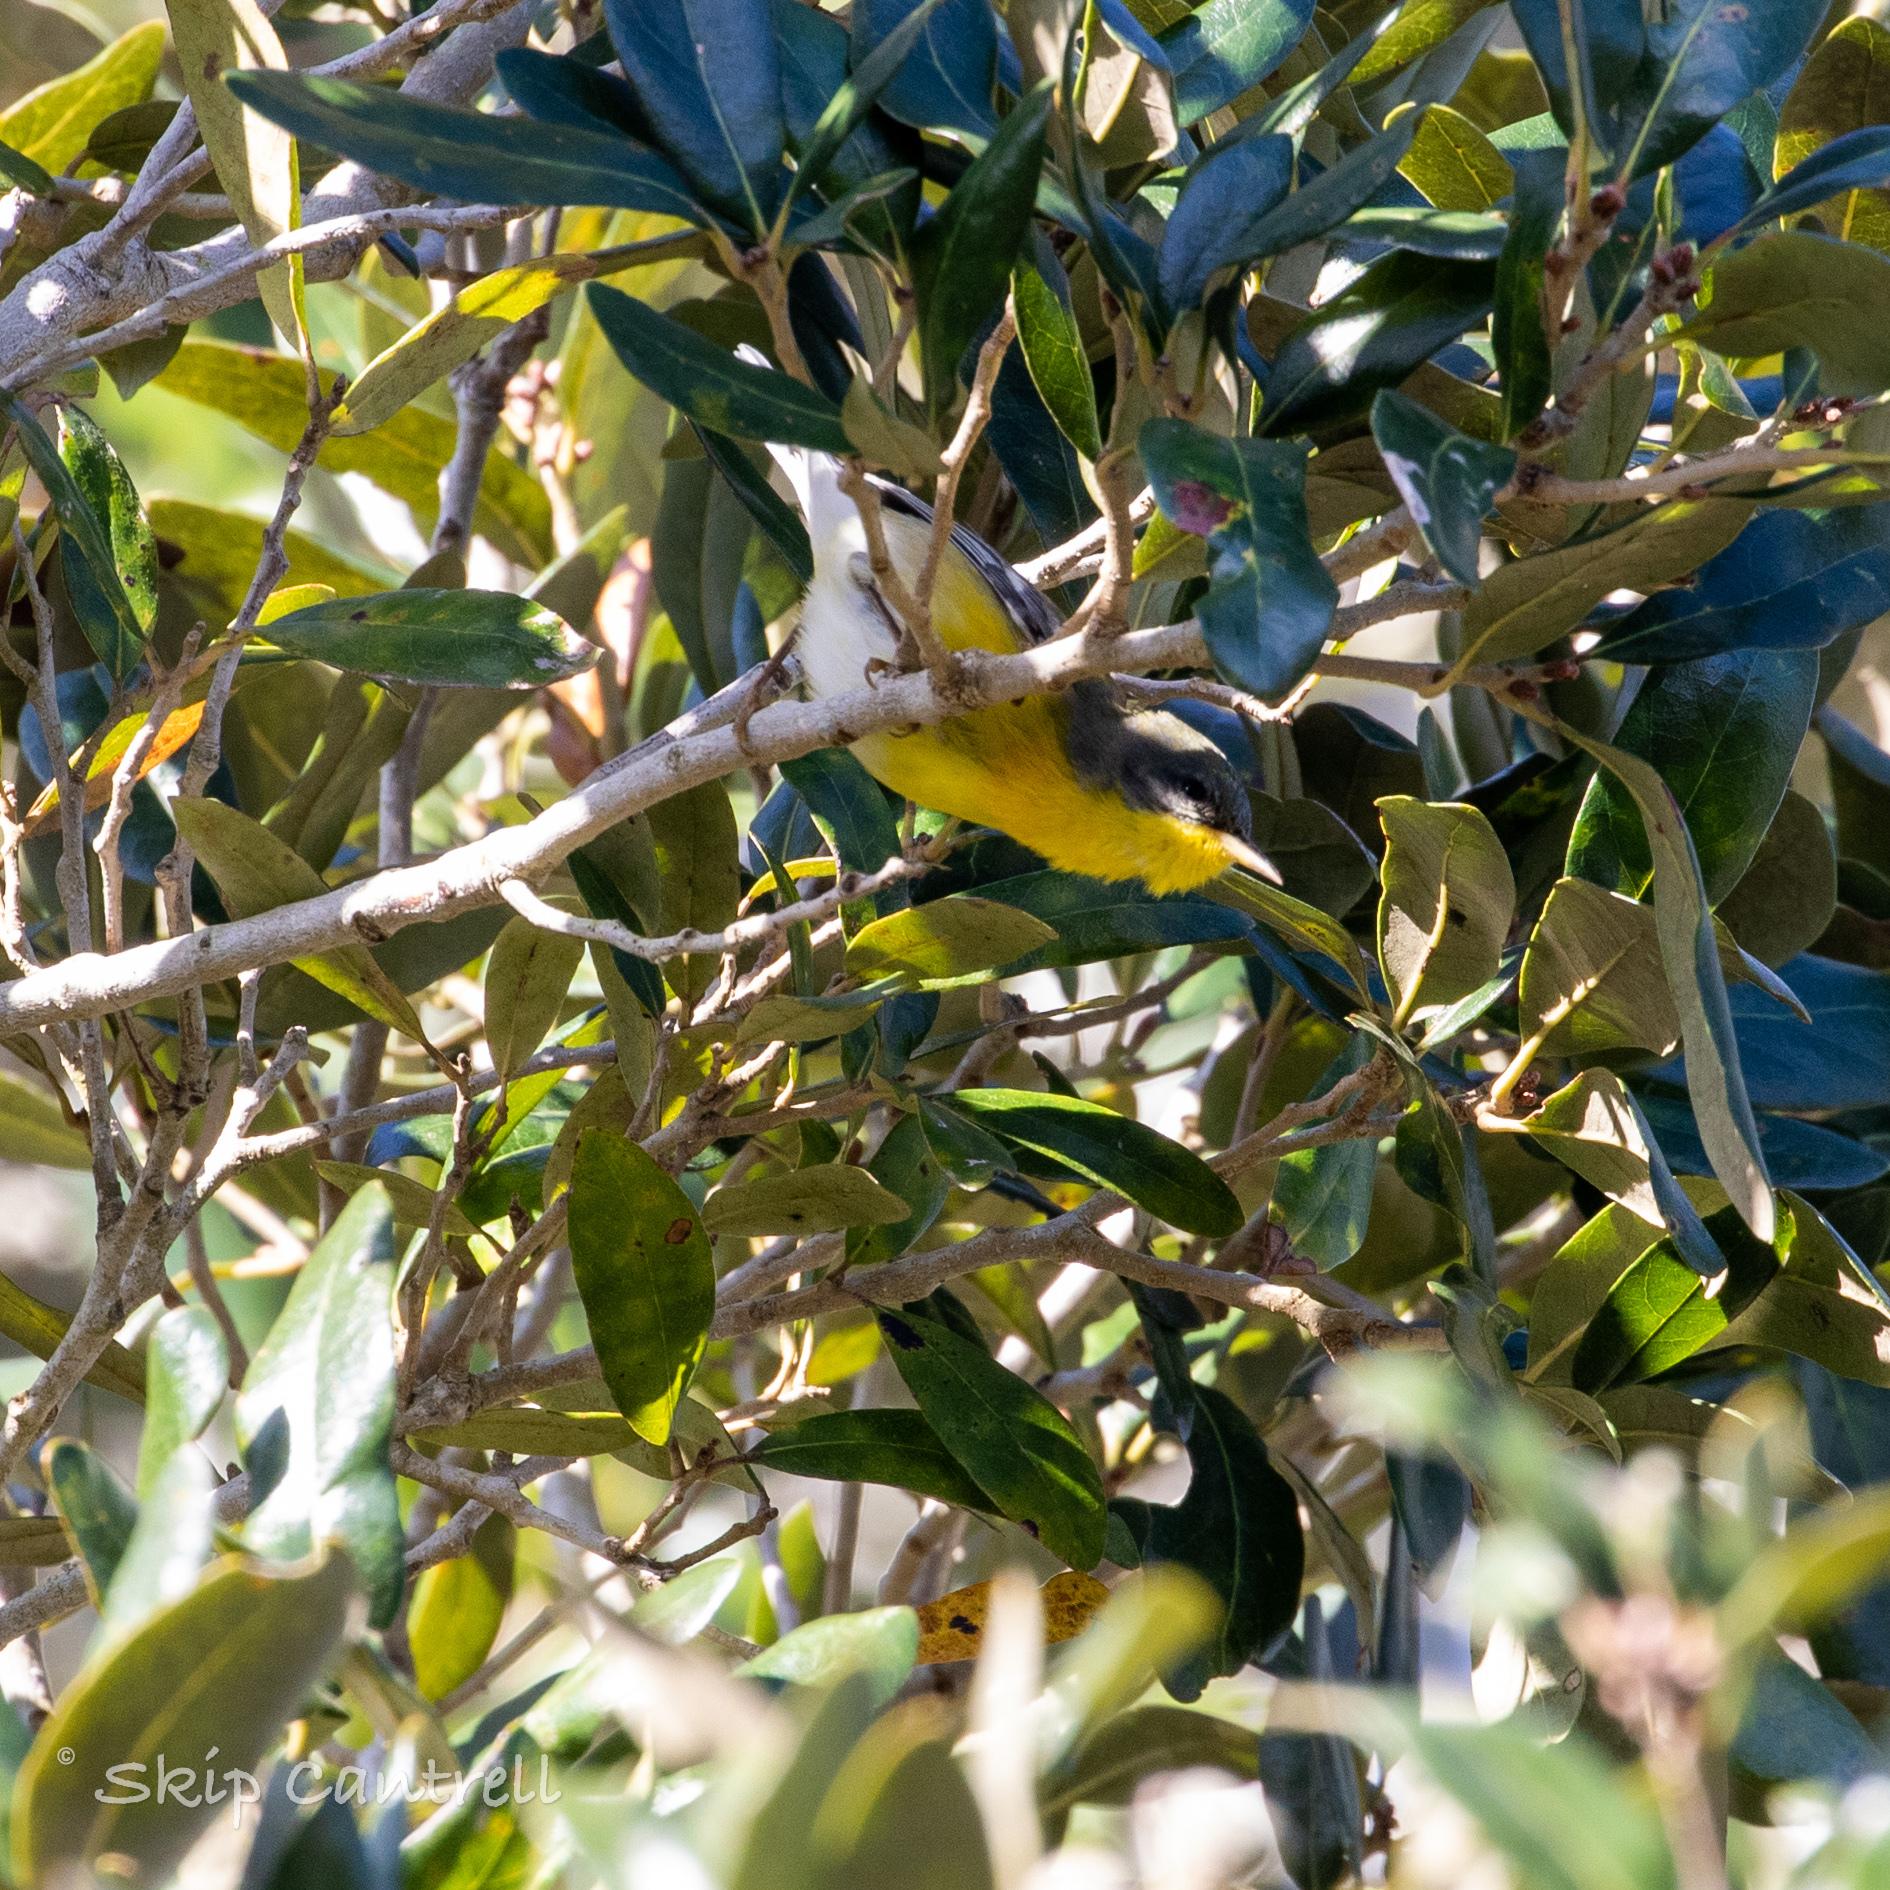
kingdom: Animalia
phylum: Chordata
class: Aves
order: Passeriformes
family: Parulidae
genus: Setophaga
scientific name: Setophaga pitiayumi
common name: Tropical parula
